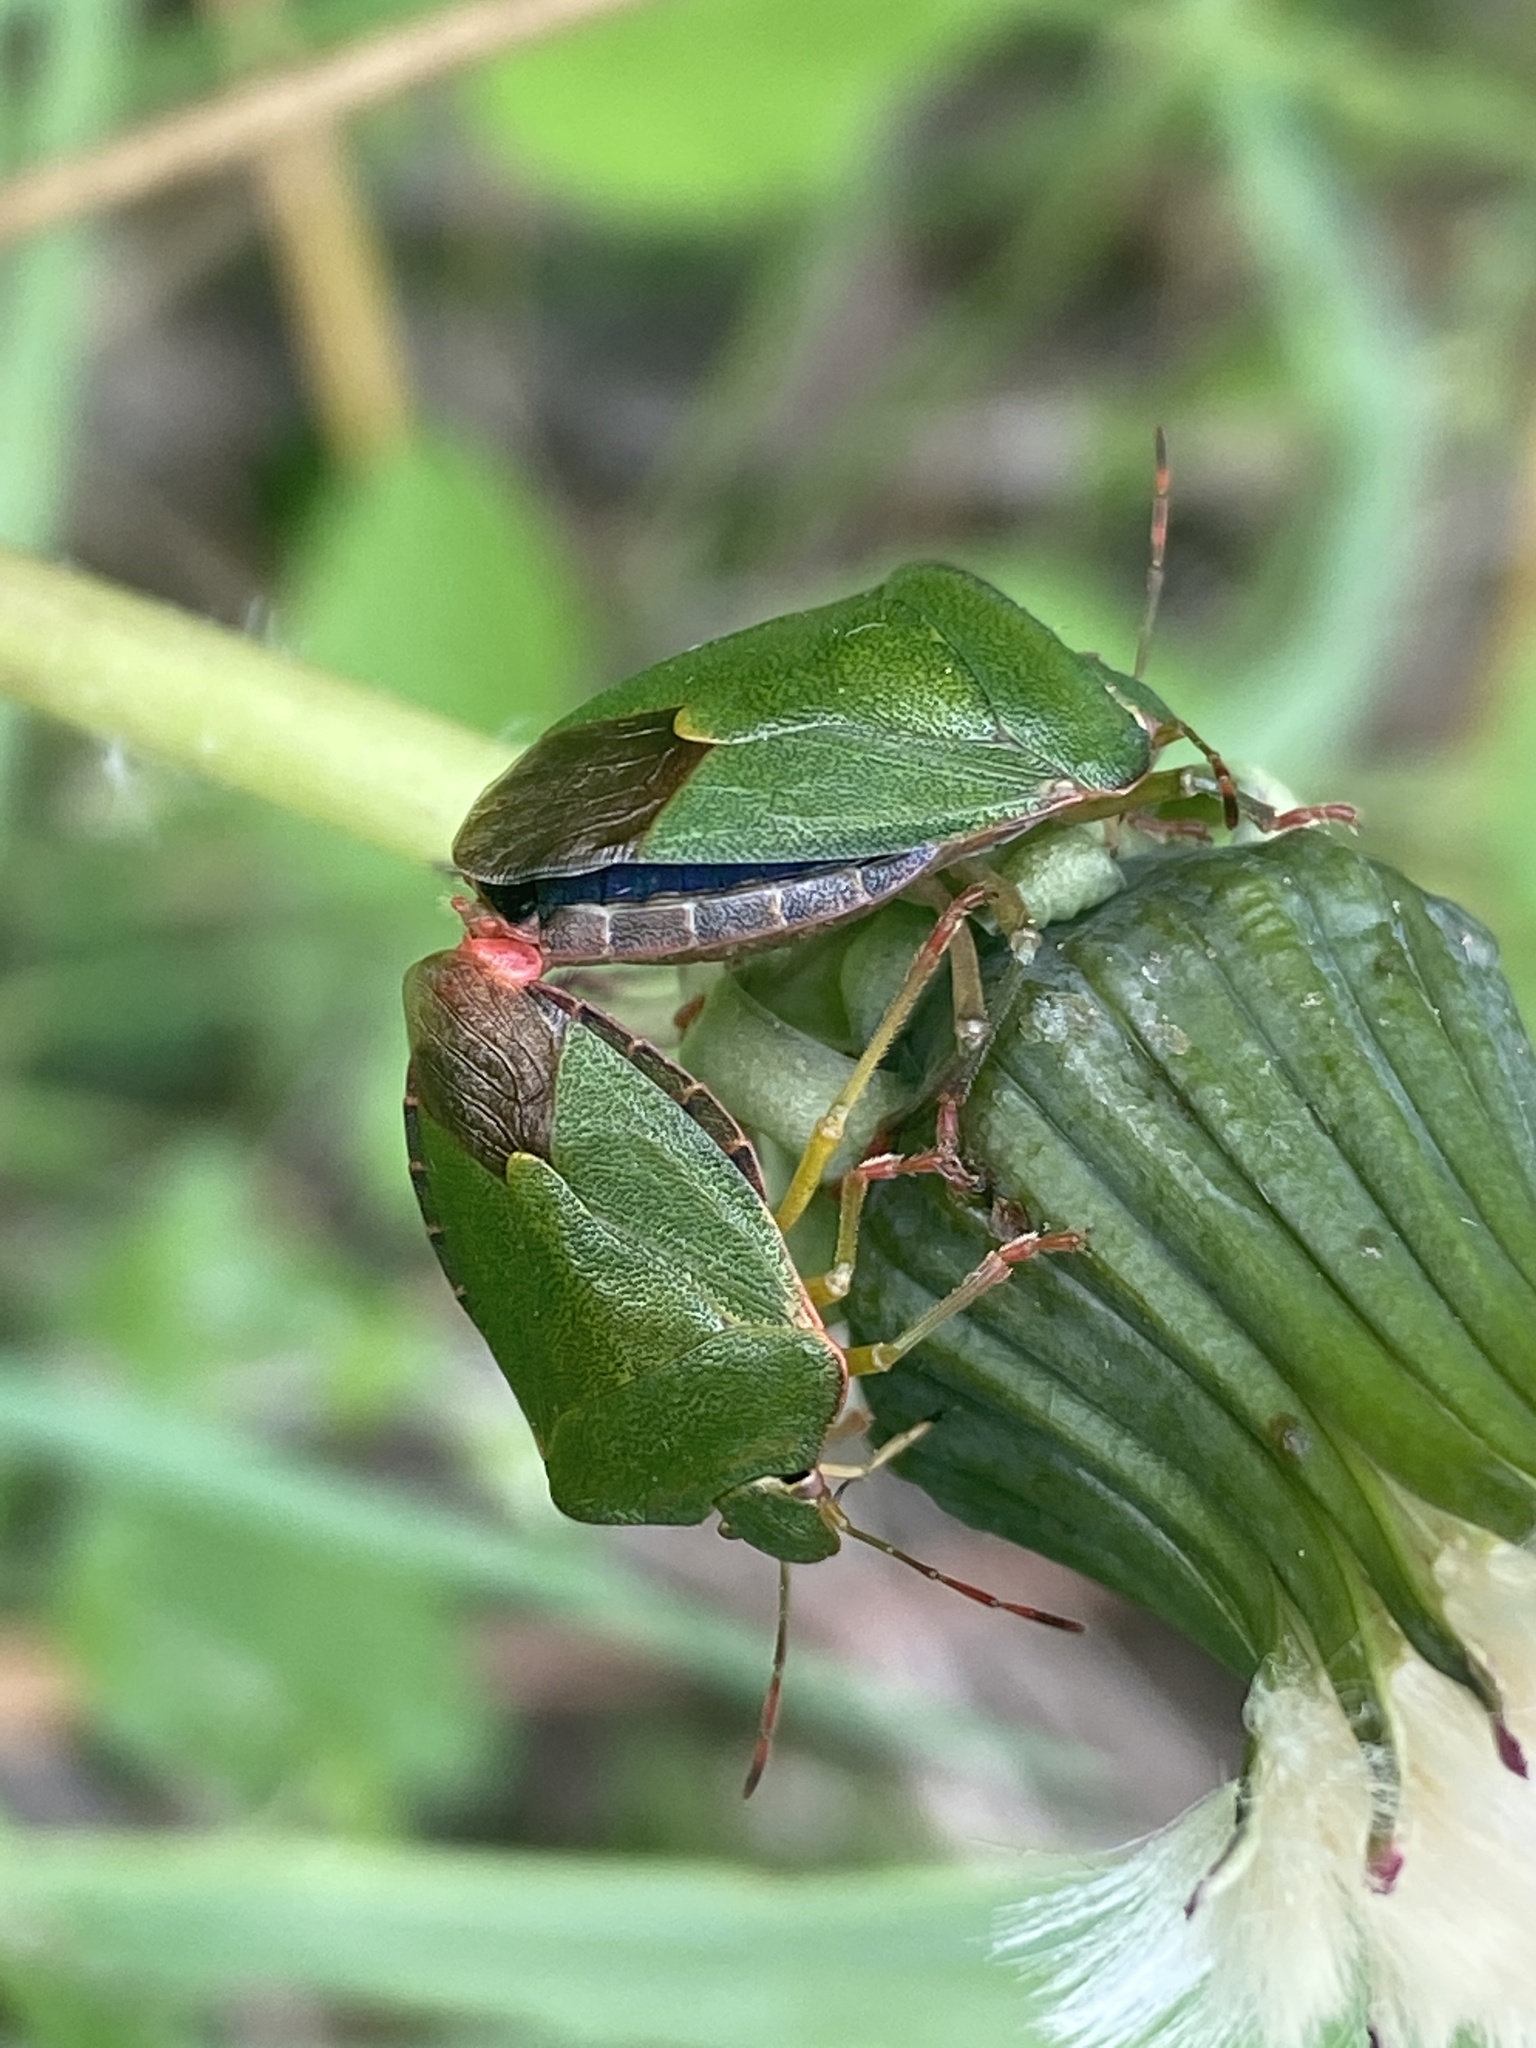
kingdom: Animalia
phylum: Arthropoda
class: Insecta
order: Hemiptera
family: Pentatomidae
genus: Palomena
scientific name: Palomena prasina
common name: Green shieldbug
